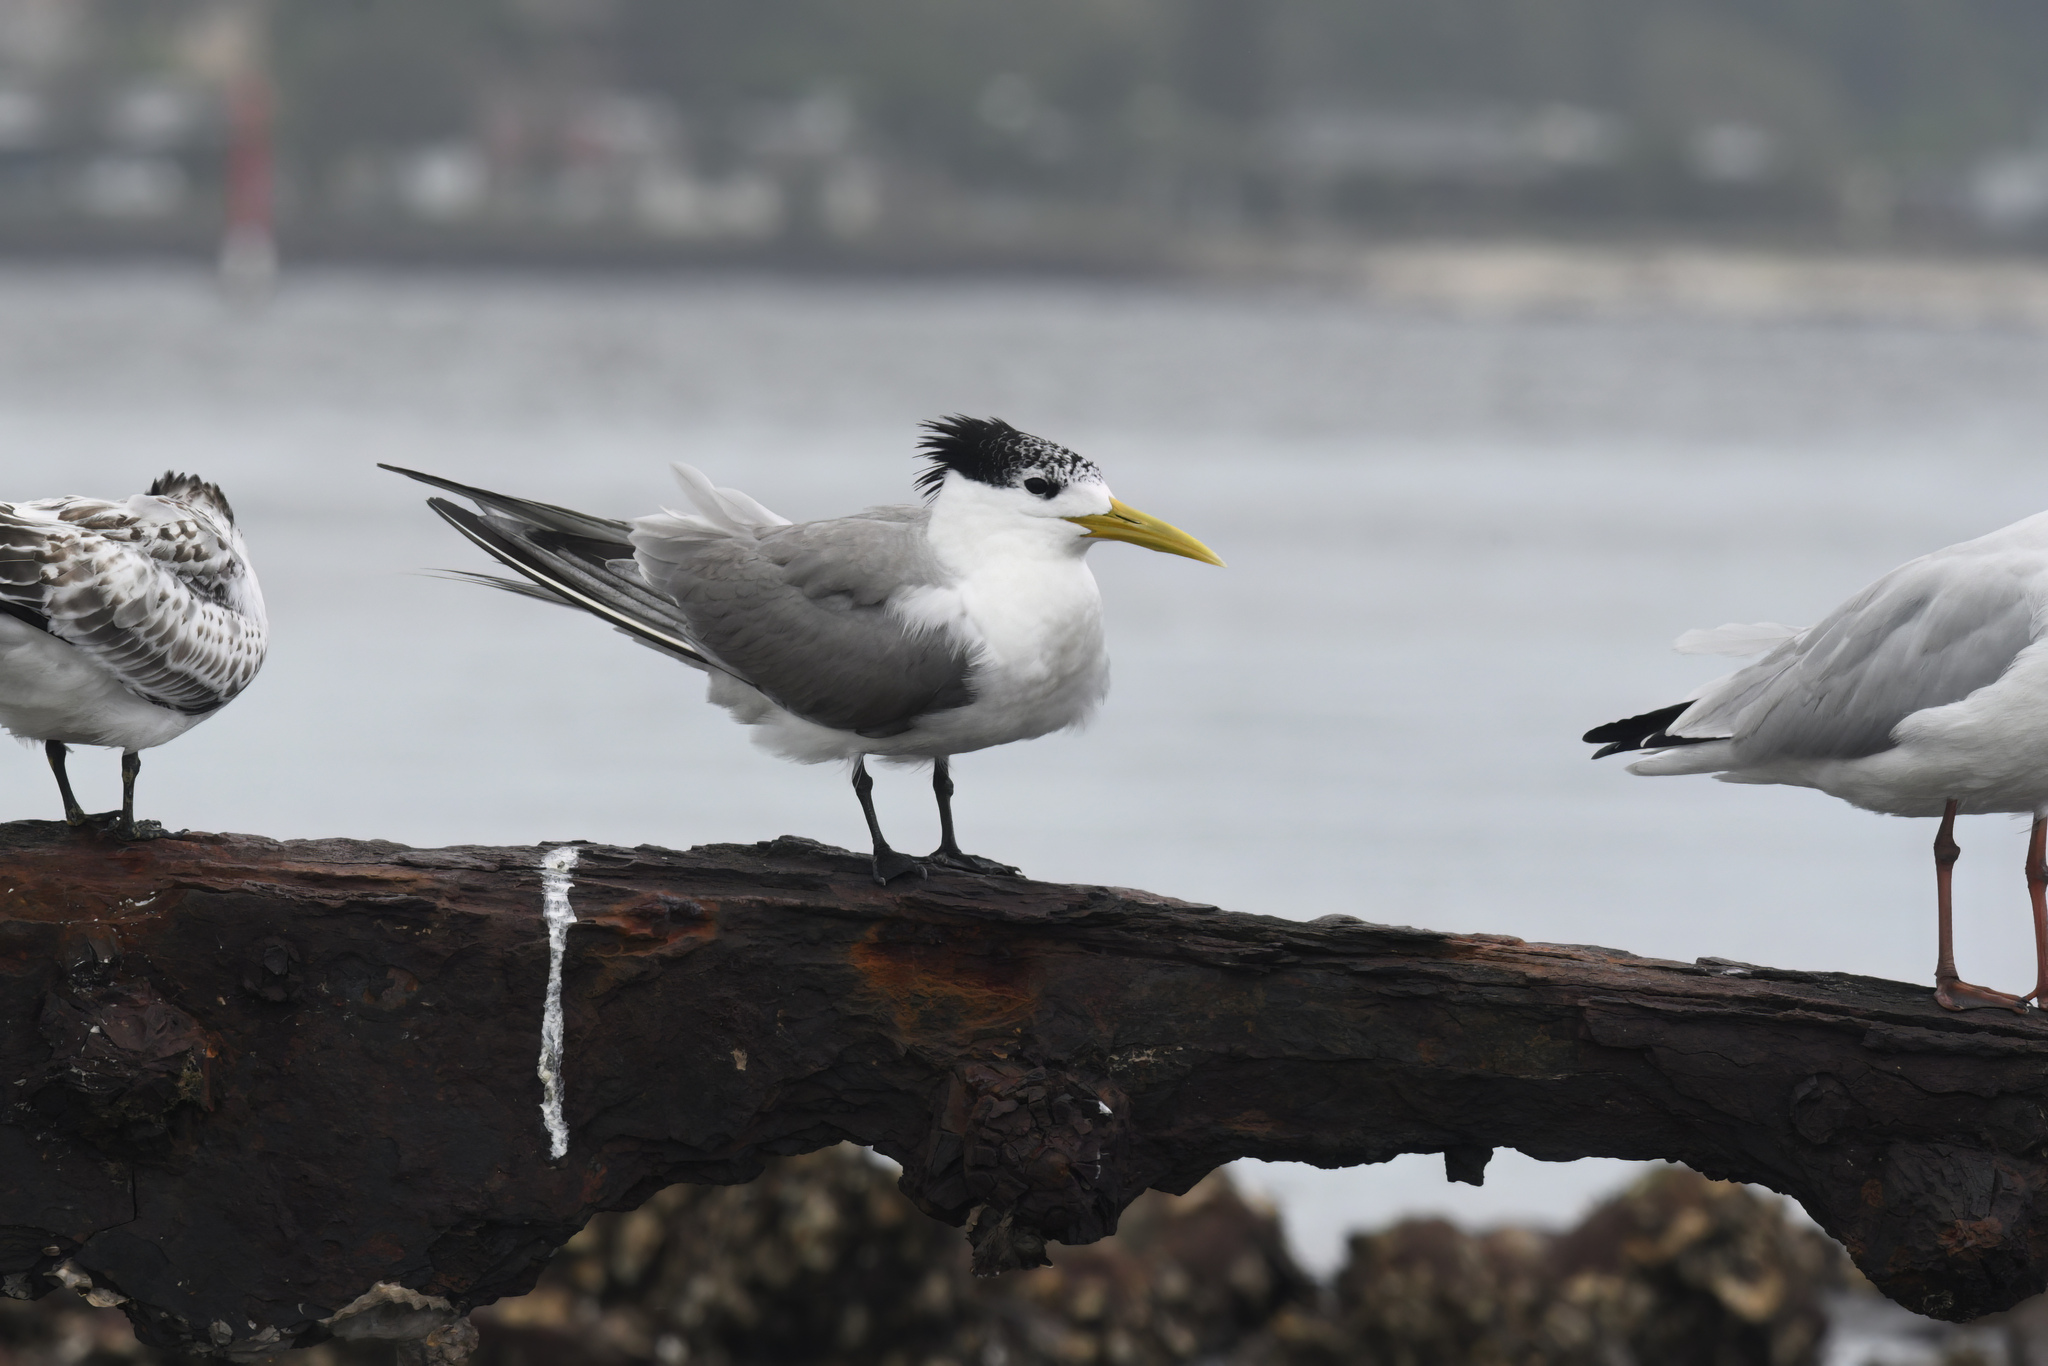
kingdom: Animalia
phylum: Chordata
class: Aves
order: Charadriiformes
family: Laridae
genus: Thalasseus
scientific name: Thalasseus bergii
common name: Greater crested tern
